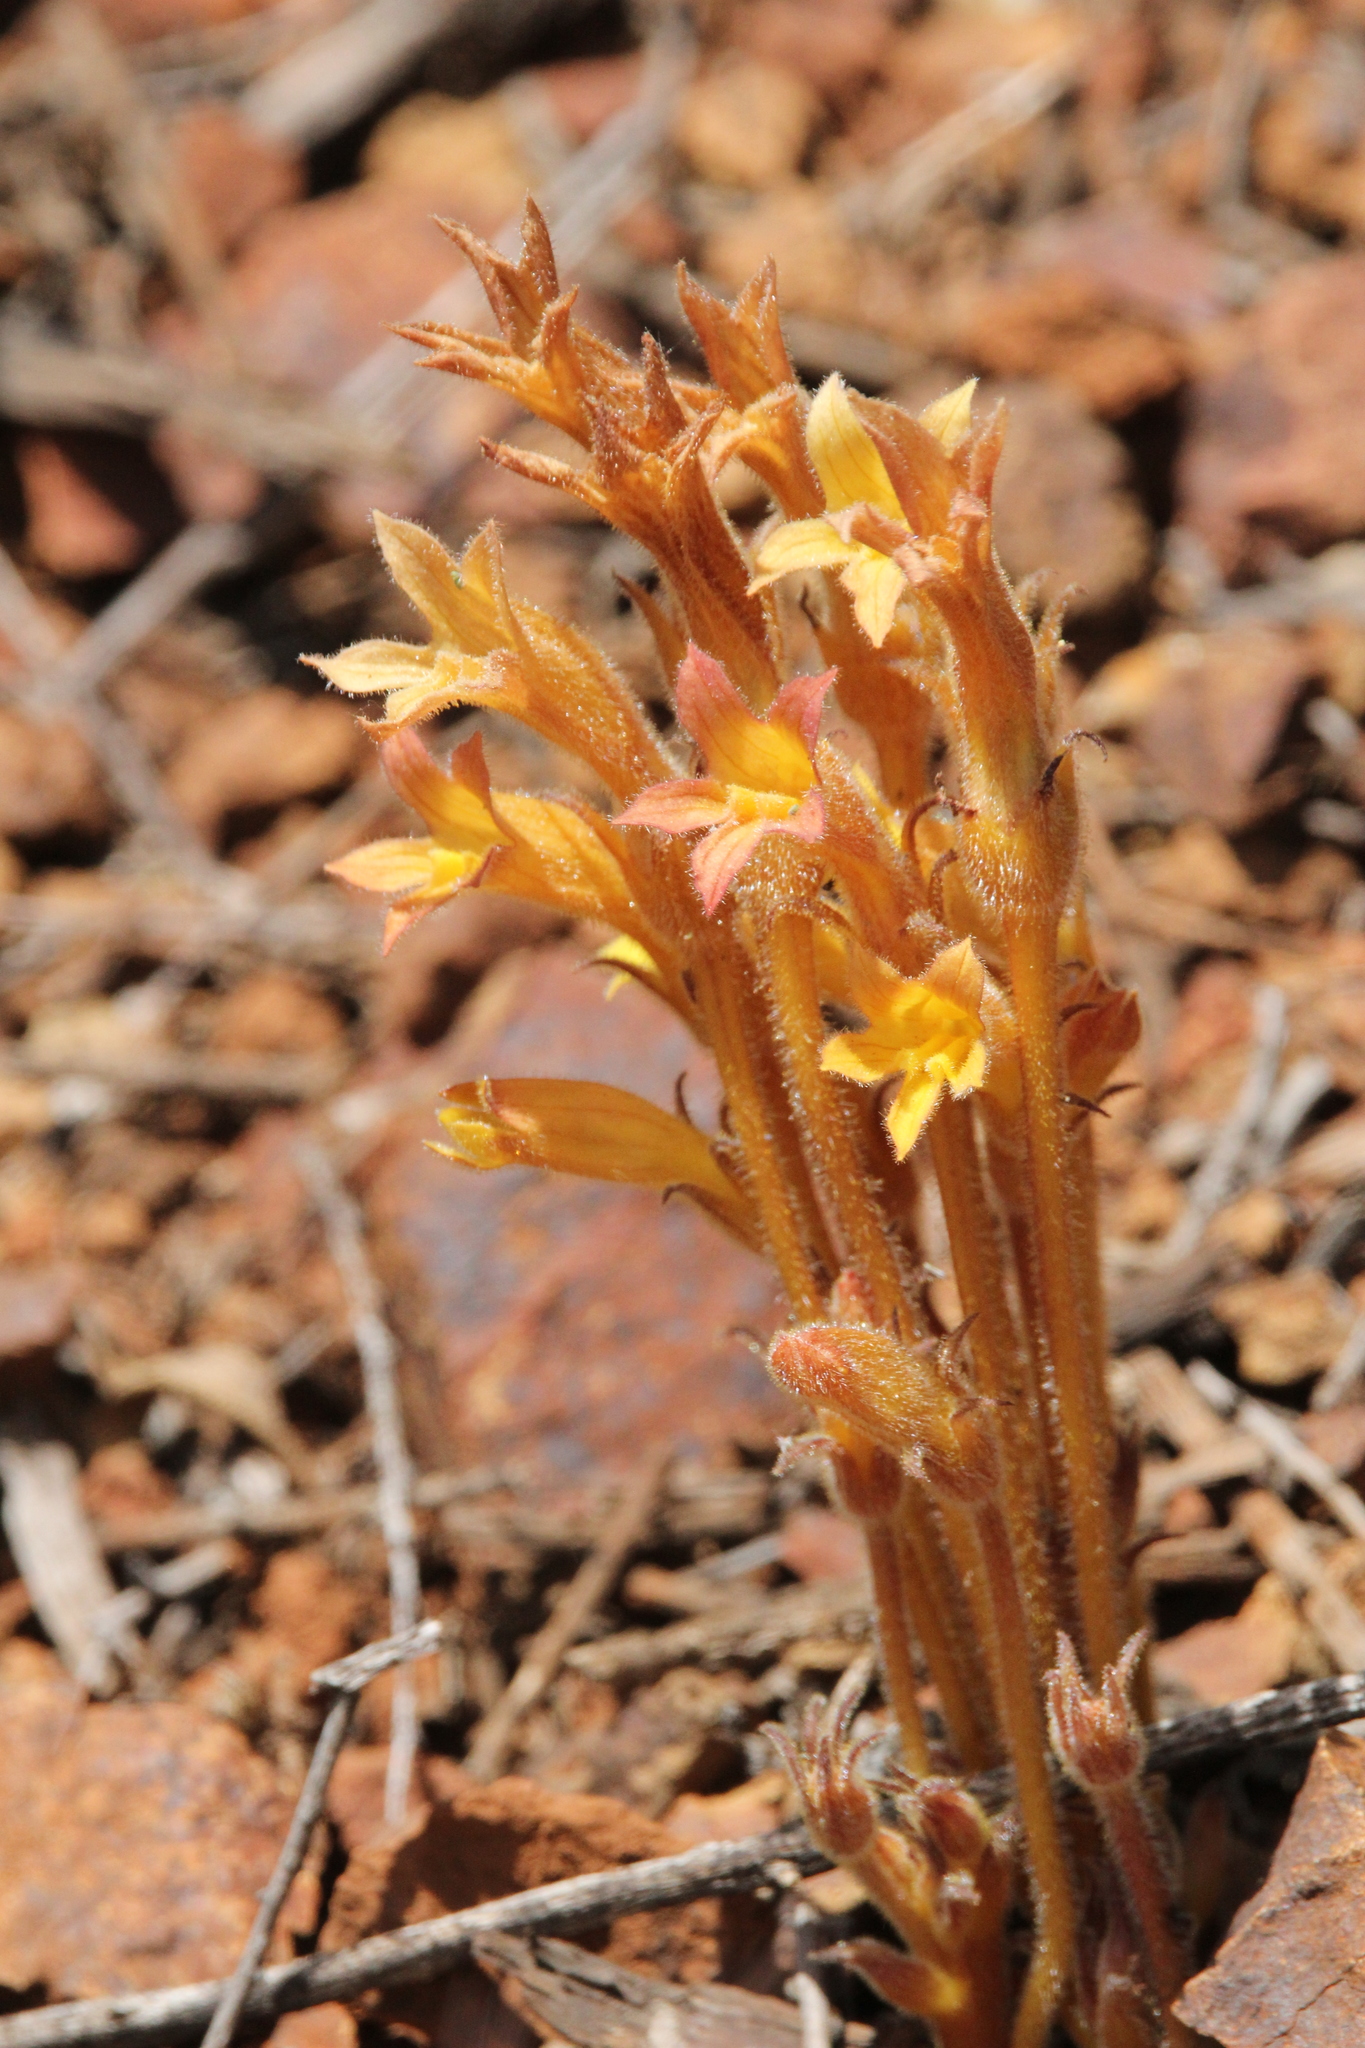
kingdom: Plantae
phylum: Tracheophyta
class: Magnoliopsida
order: Lamiales
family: Orobanchaceae
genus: Aphyllon
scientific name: Aphyllon franciscanum
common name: San francisco broomrape
